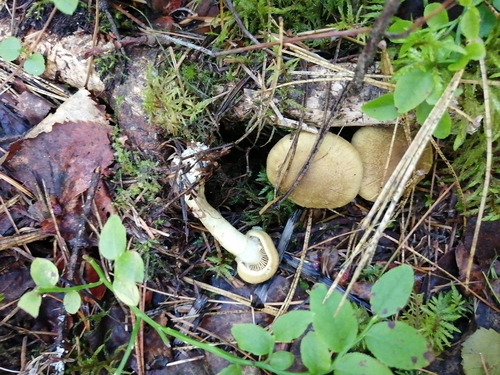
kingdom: Fungi
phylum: Basidiomycota
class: Agaricomycetes
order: Agaricales
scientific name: Agaricales
